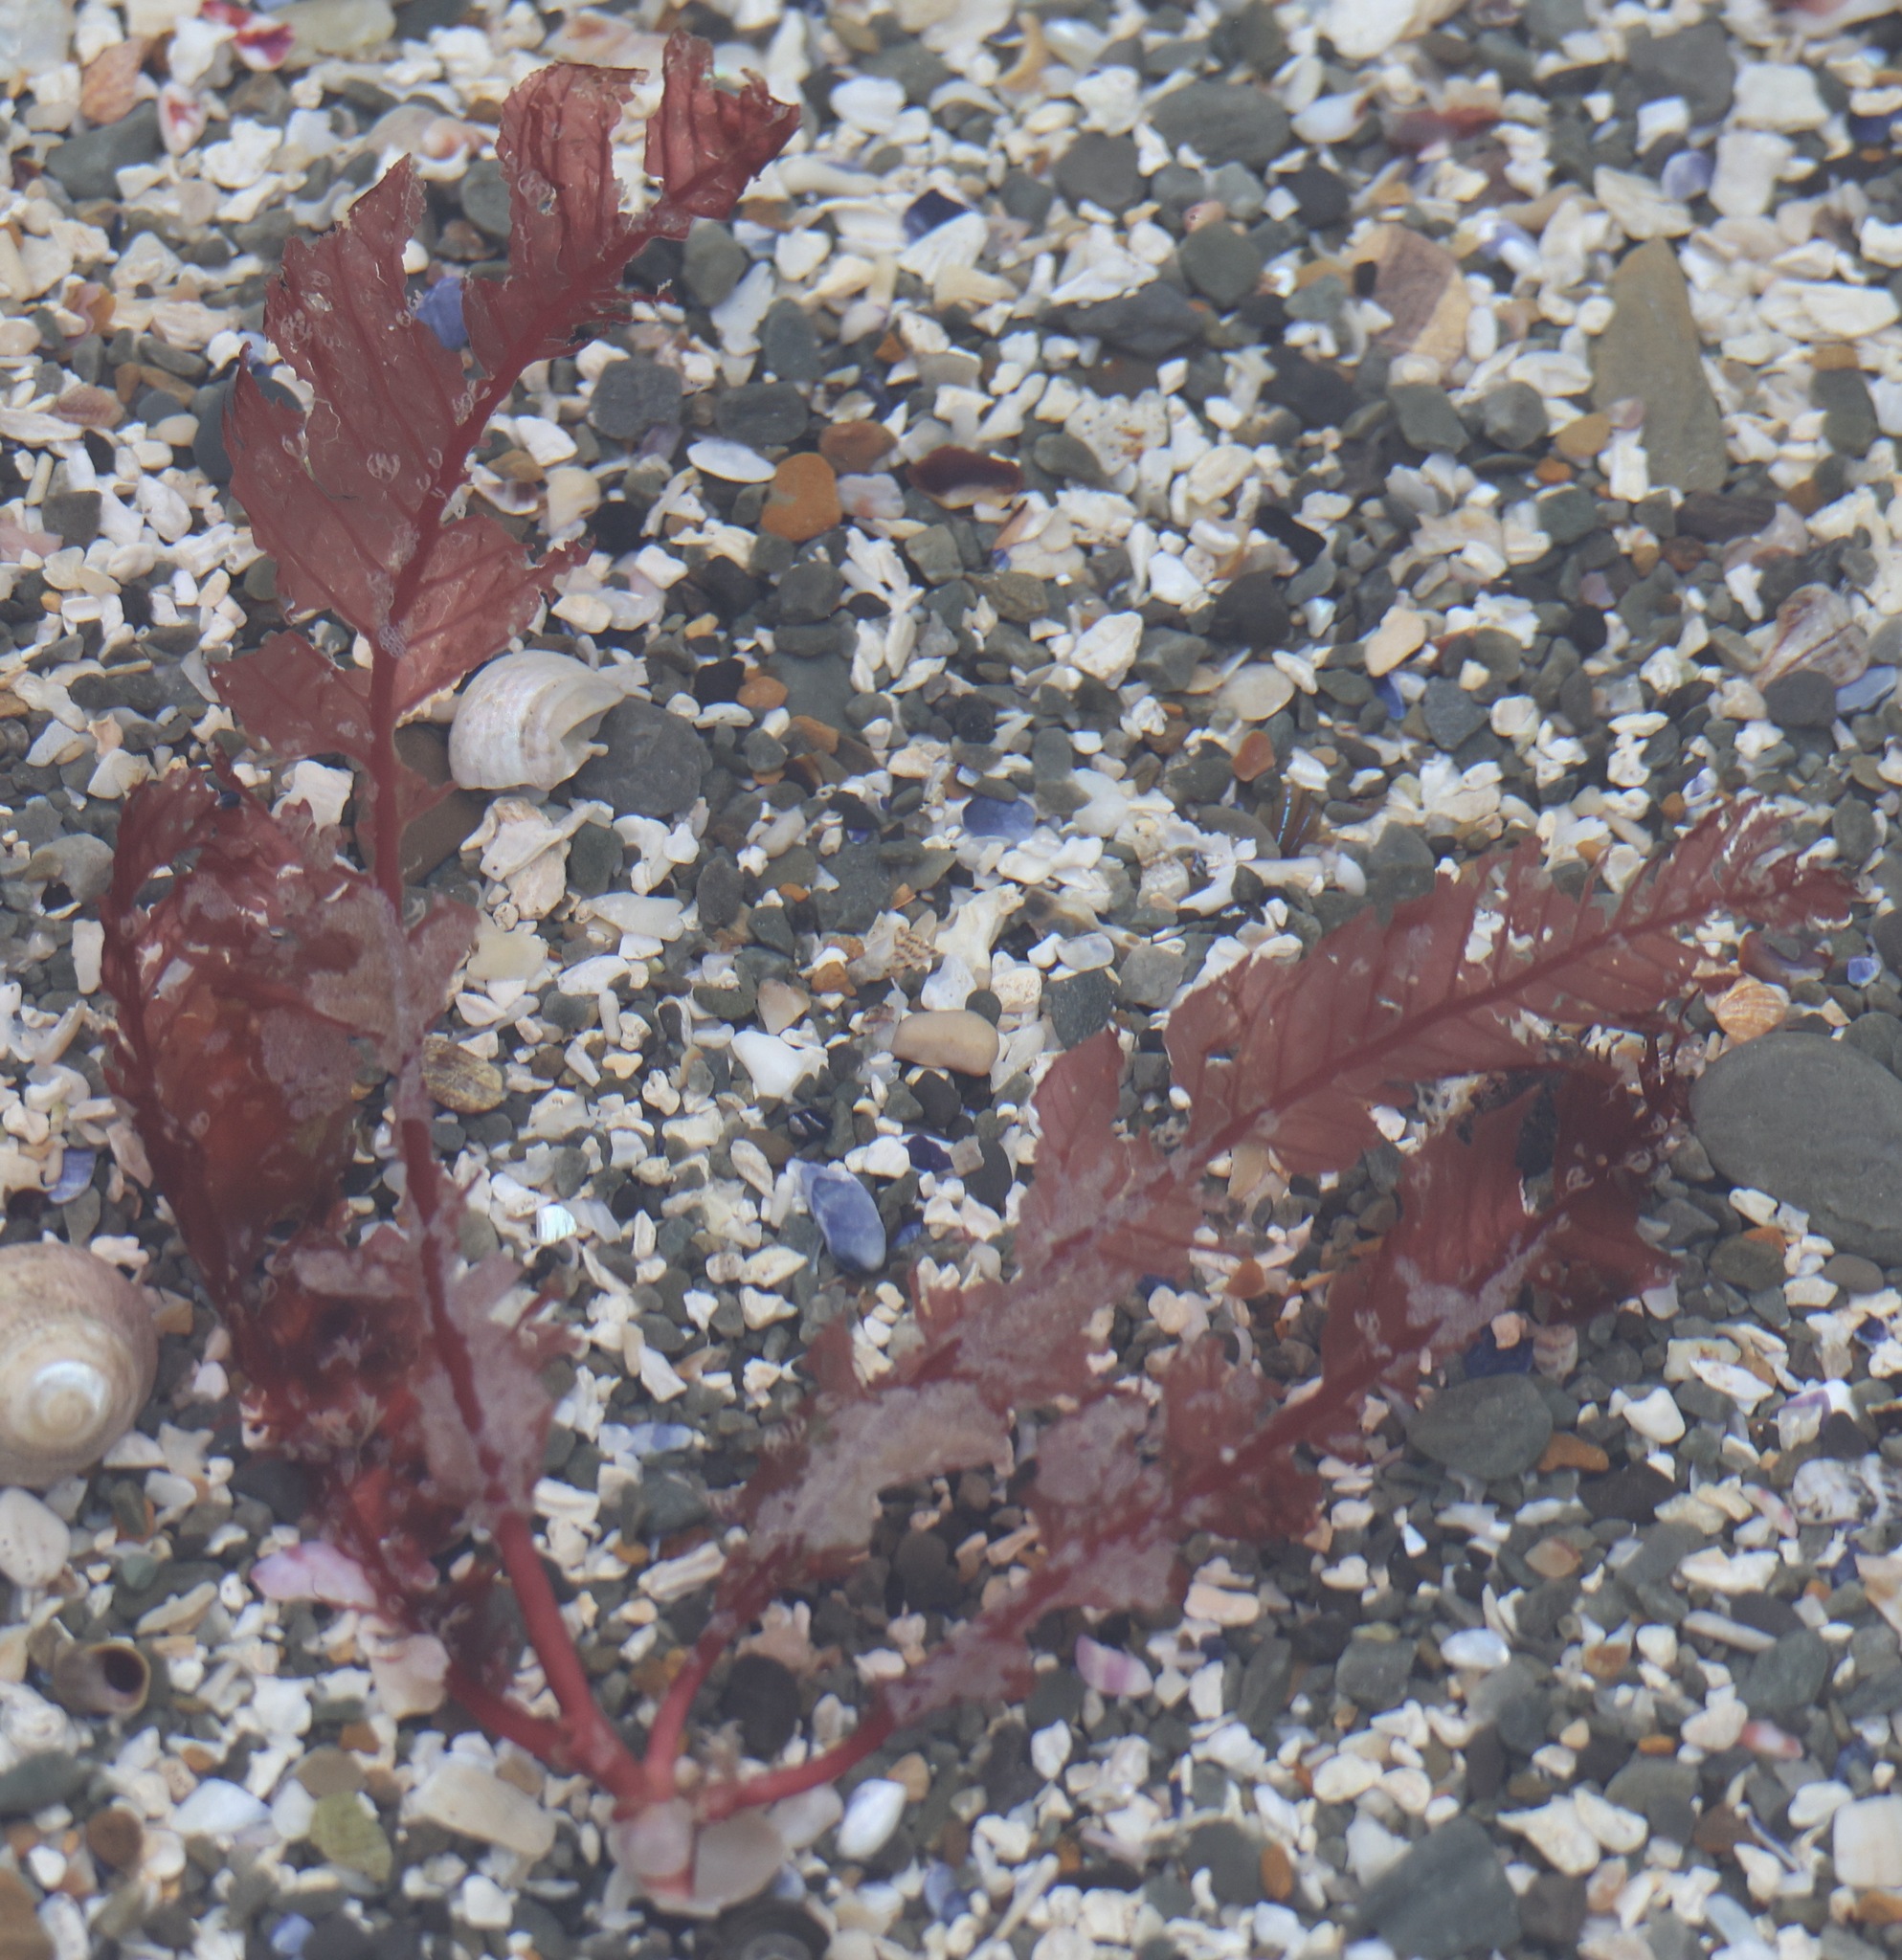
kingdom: Plantae
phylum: Rhodophyta
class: Florideophyceae
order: Ceramiales
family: Delesseriaceae
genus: Phycodrys
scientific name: Phycodrys rubens
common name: Sea oak
